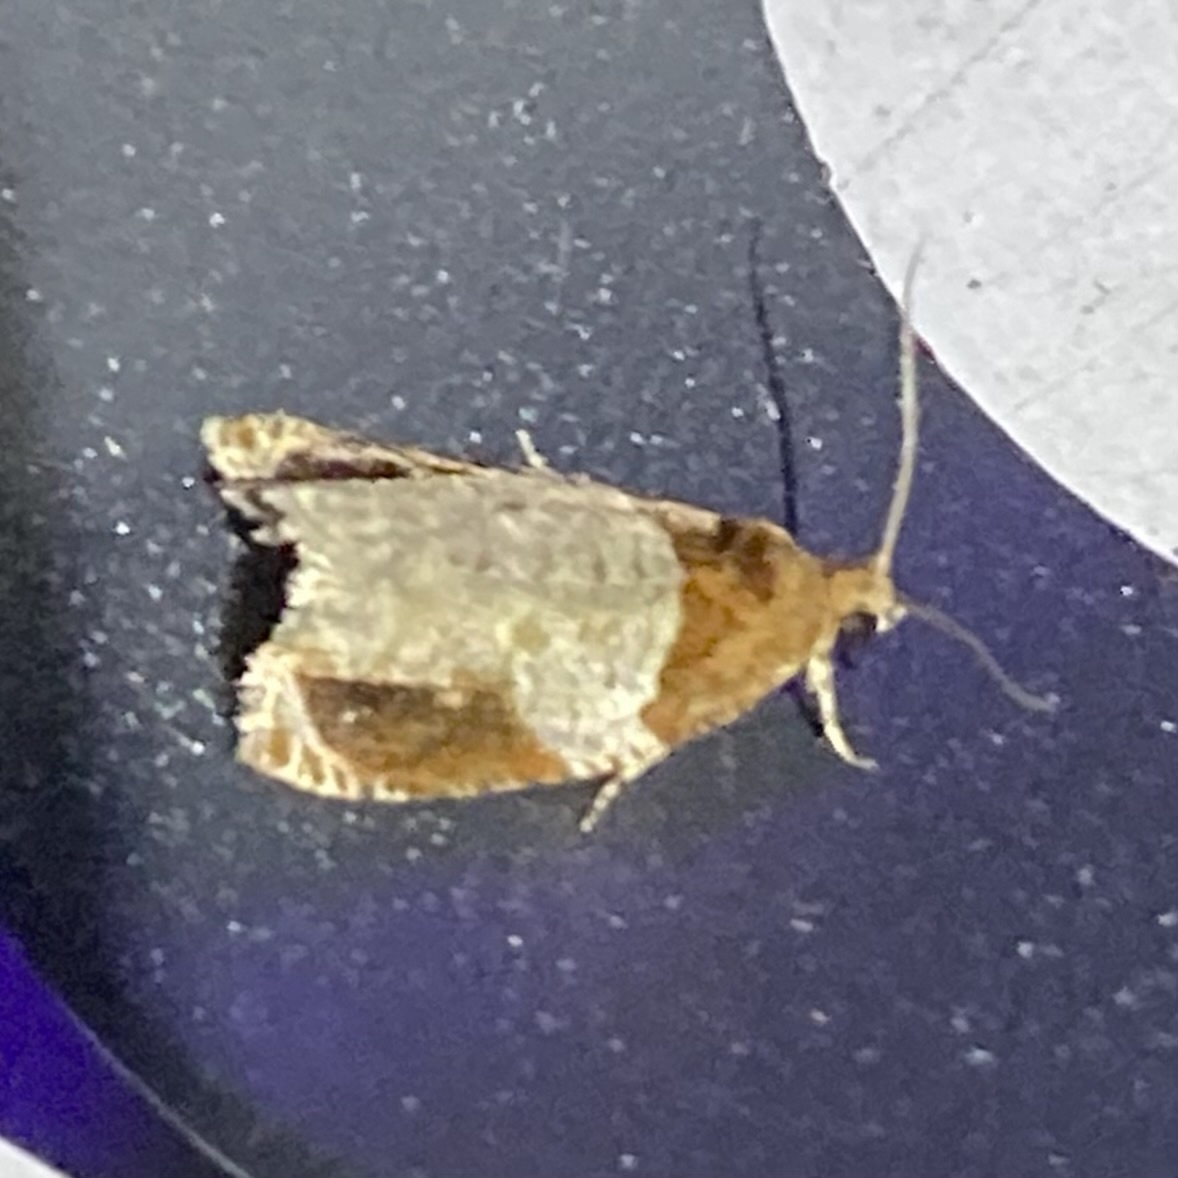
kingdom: Animalia
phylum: Arthropoda
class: Insecta
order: Lepidoptera
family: Tortricidae
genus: Olethreutes
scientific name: Olethreutes ferriferana
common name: Hydrangea leaftier moth
